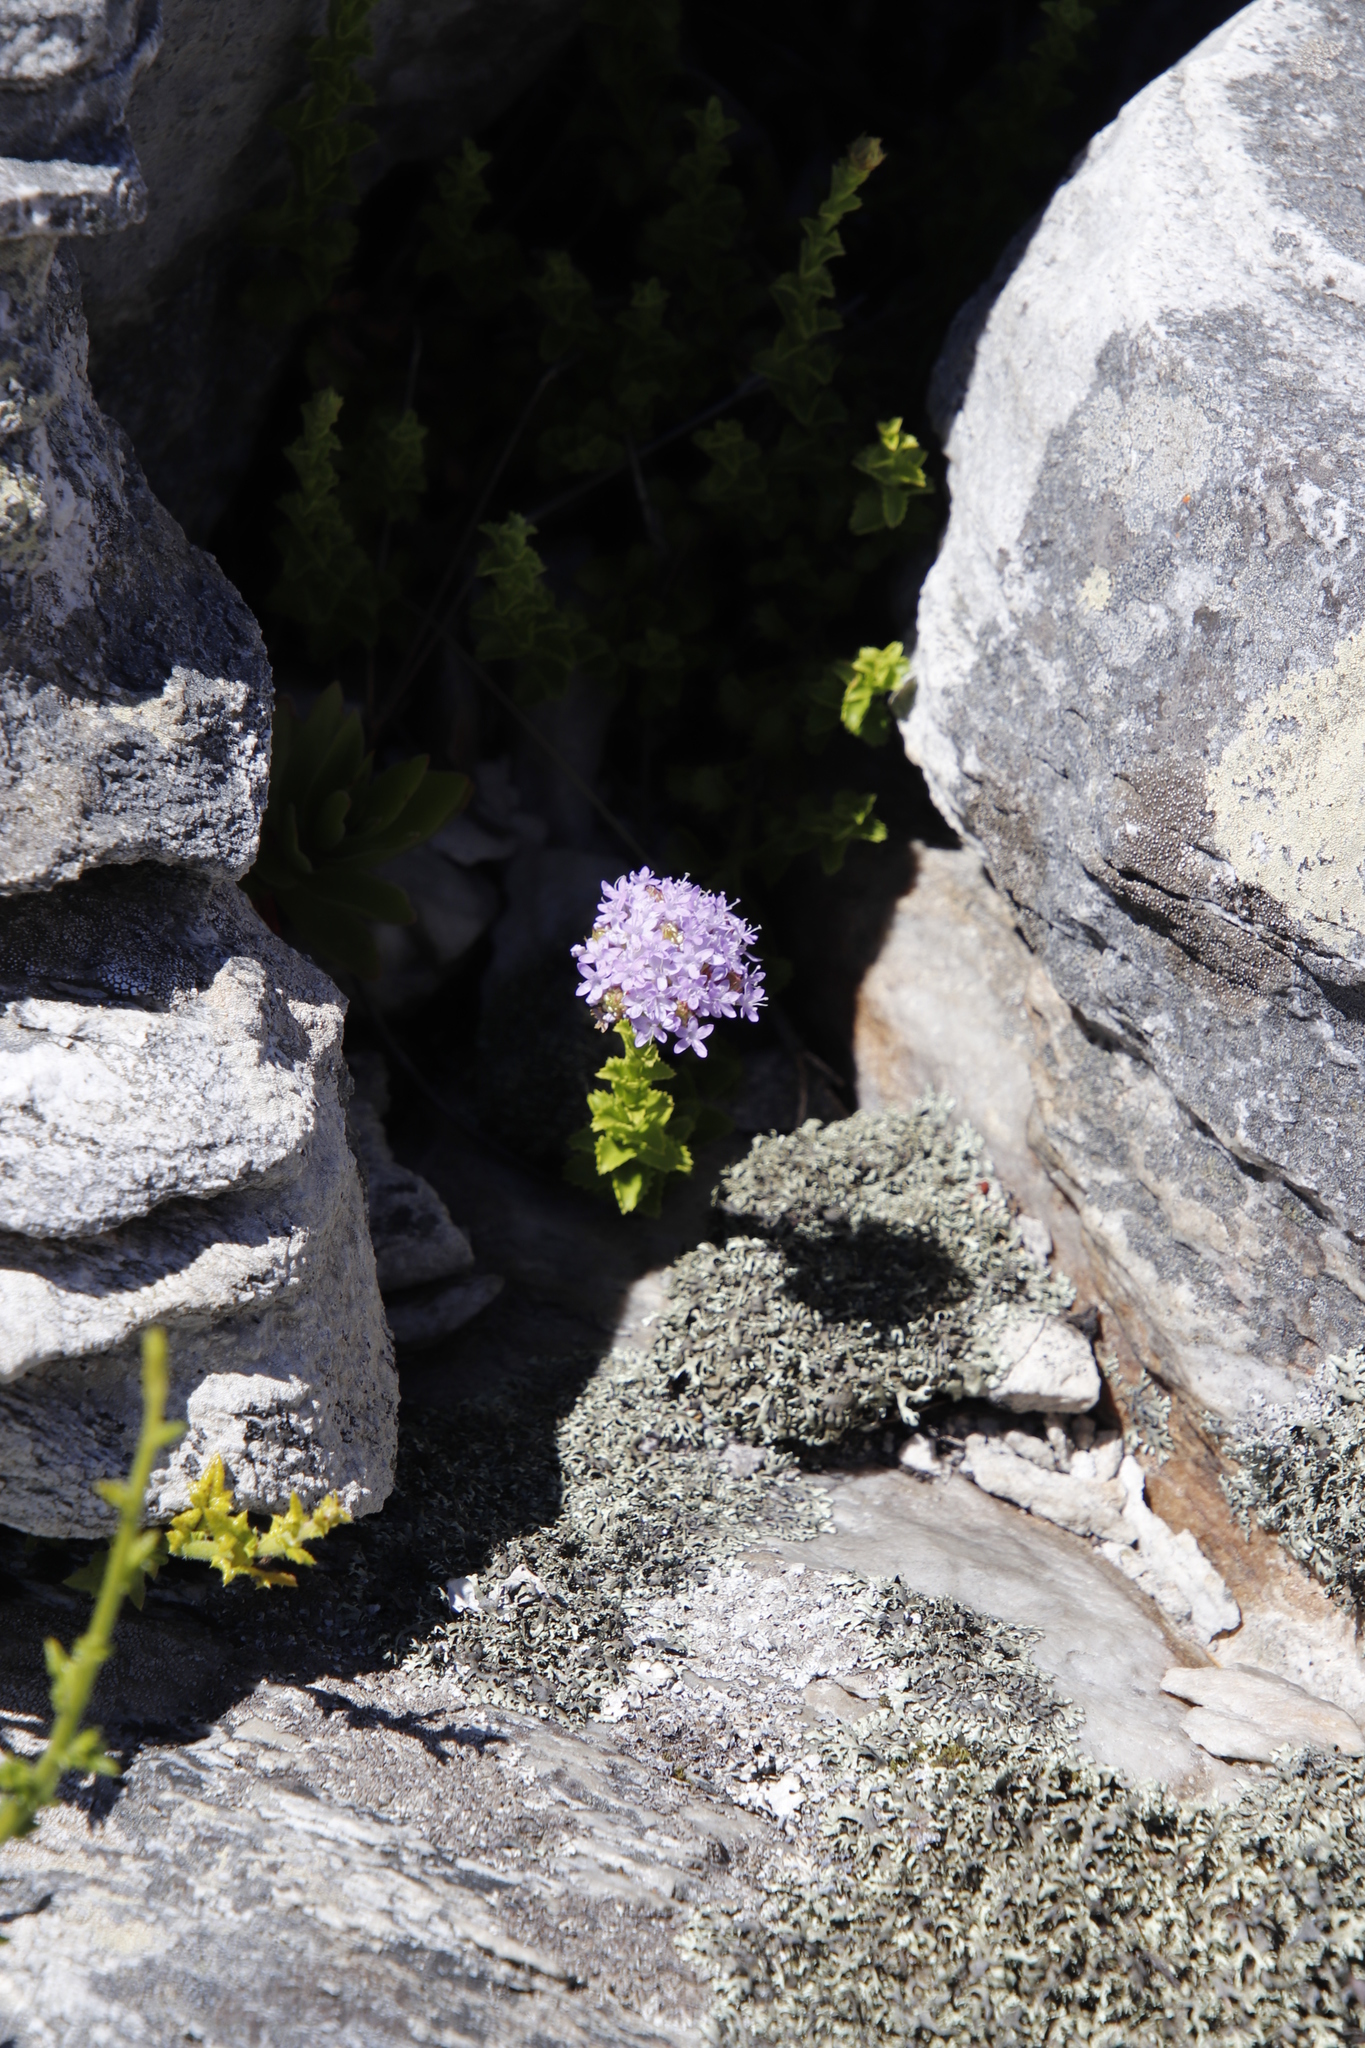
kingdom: Plantae
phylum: Tracheophyta
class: Magnoliopsida
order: Lamiales
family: Scrophulariaceae
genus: Pseudoselago
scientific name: Pseudoselago serrata
